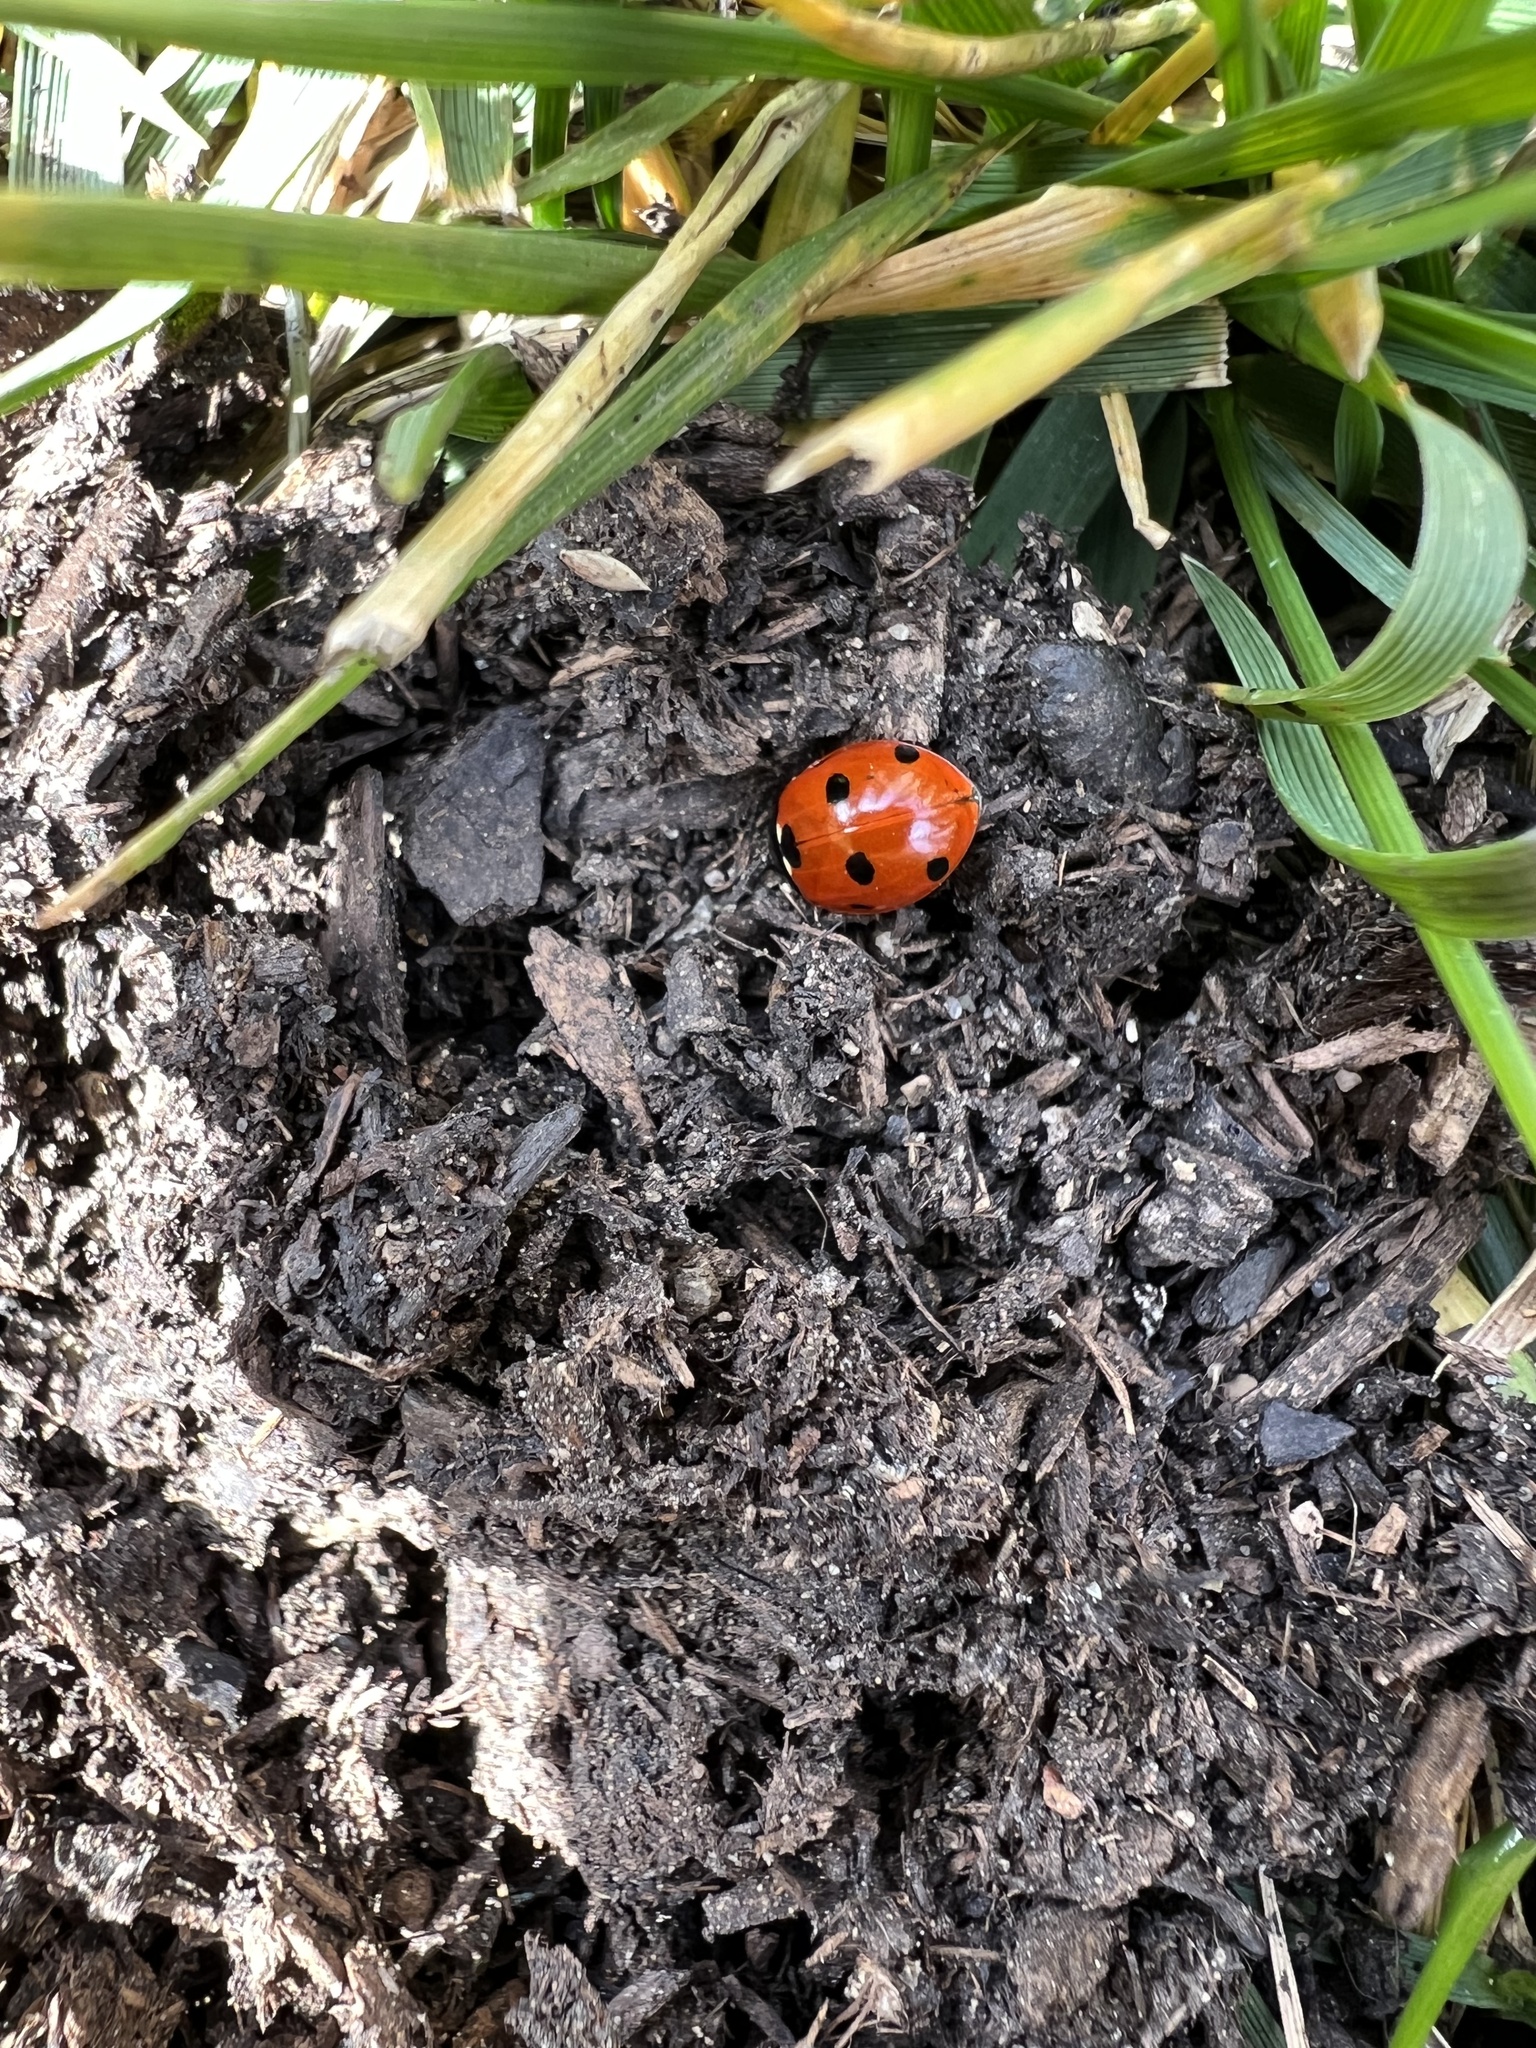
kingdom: Animalia
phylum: Arthropoda
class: Insecta
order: Coleoptera
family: Coccinellidae
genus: Coccinella
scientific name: Coccinella septempunctata
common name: Sevenspotted lady beetle
